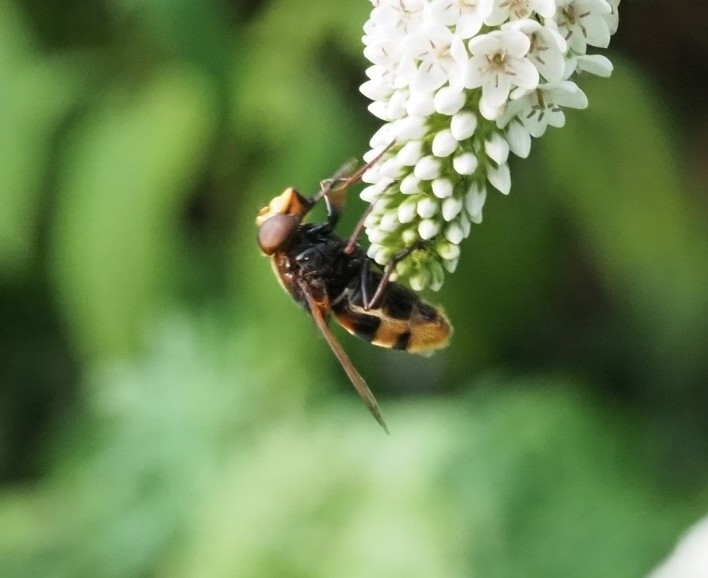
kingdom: Animalia
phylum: Arthropoda
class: Insecta
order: Diptera
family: Syrphidae
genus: Volucella
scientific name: Volucella zonaria
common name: Hornet hoverfly
